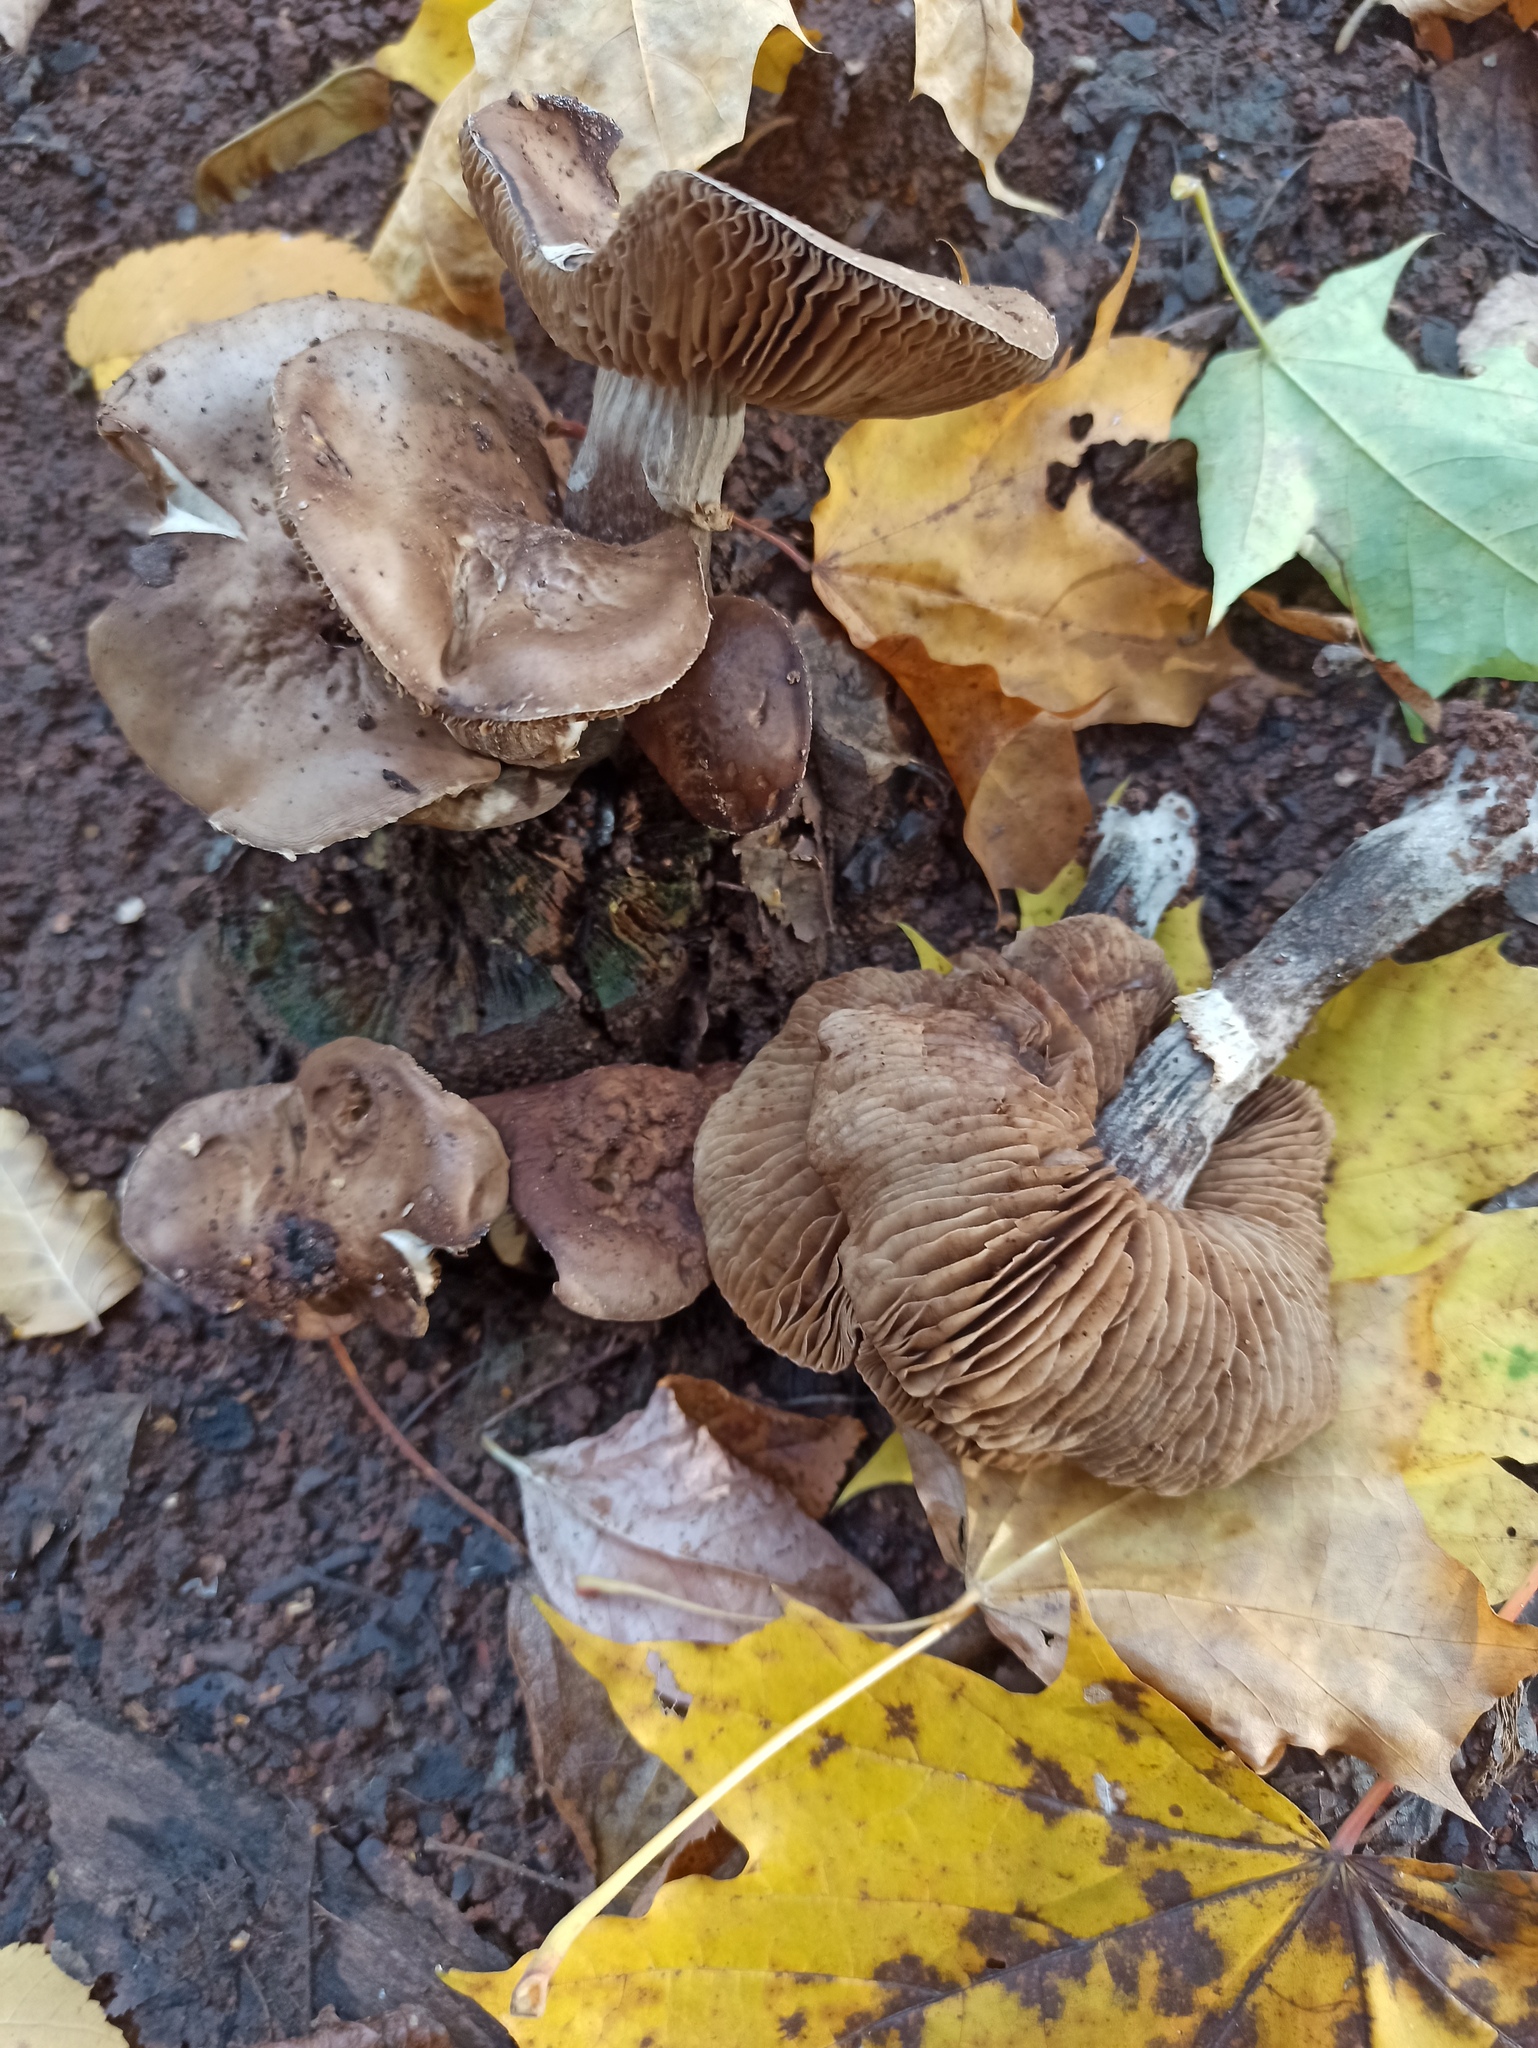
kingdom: Fungi
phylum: Basidiomycota
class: Agaricomycetes
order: Agaricales
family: Tubariaceae
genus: Cyclocybe
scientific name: Cyclocybe erebia
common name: Dark fieldcap
